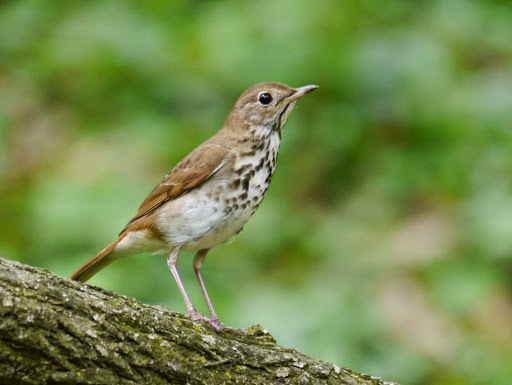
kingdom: Animalia
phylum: Chordata
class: Aves
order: Passeriformes
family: Turdidae
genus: Catharus
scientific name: Catharus guttatus
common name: Hermit thrush
